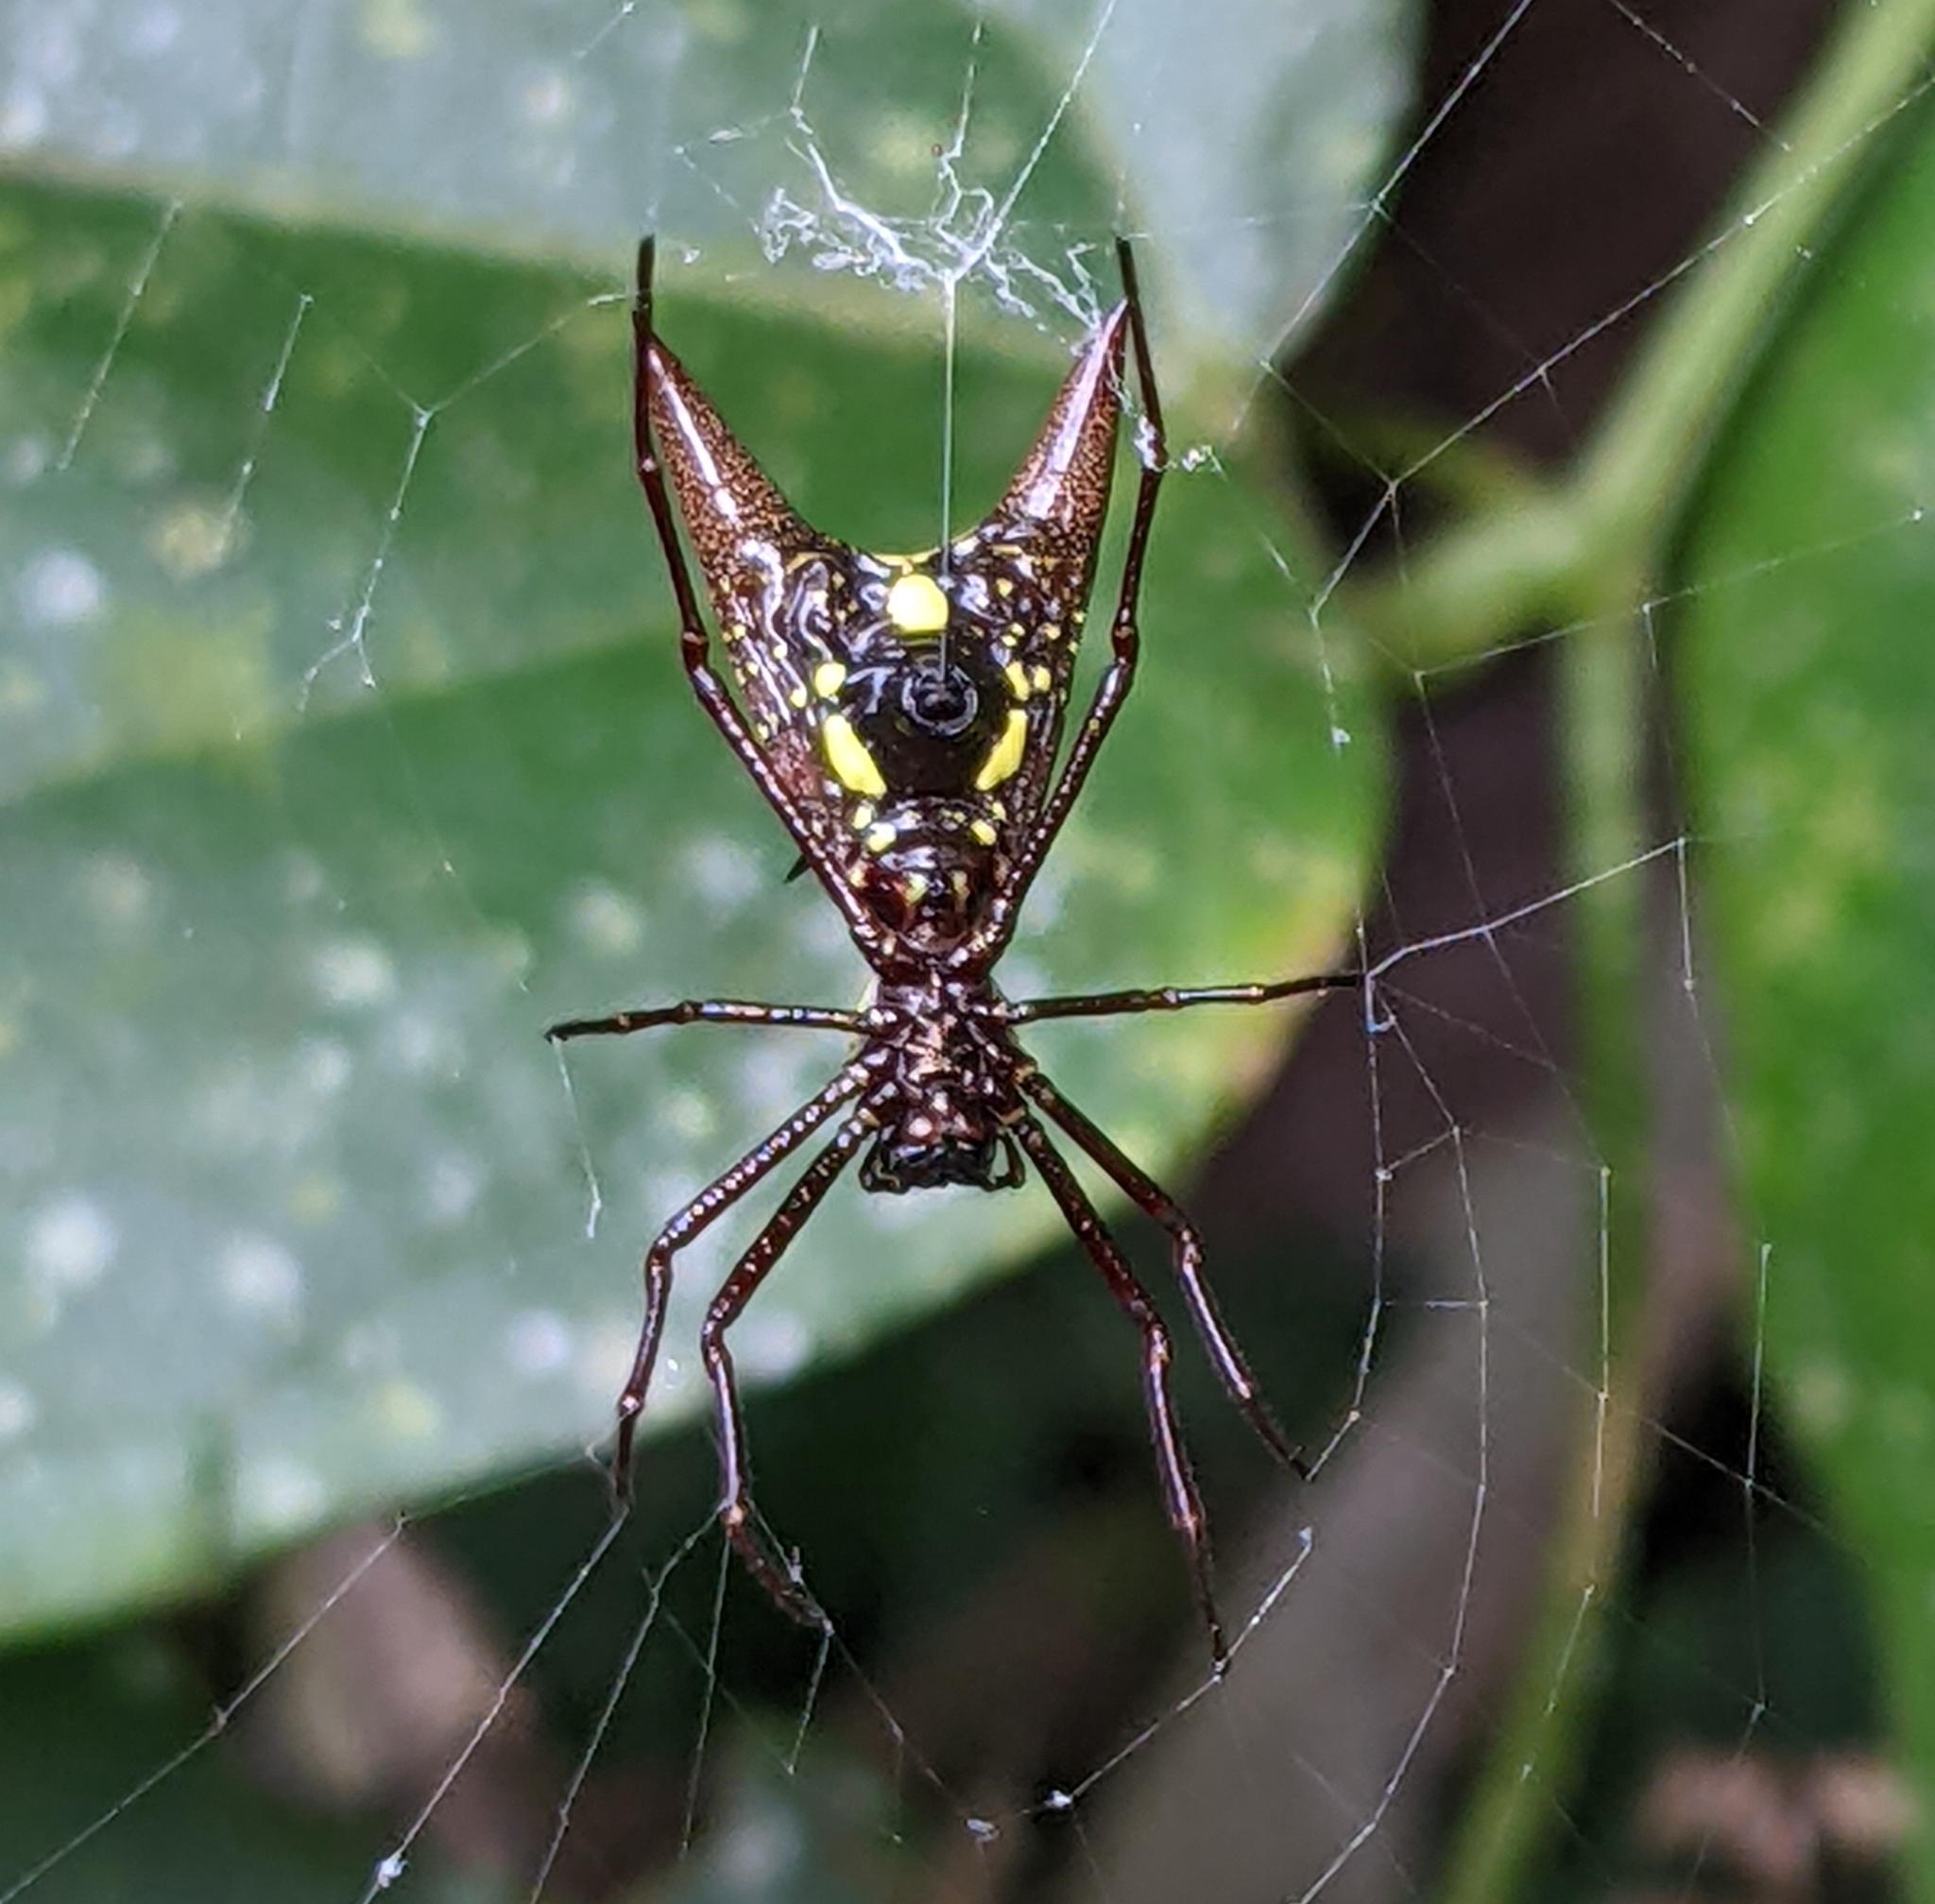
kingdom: Animalia
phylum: Arthropoda
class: Arachnida
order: Araneae
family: Araneidae
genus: Micrathena
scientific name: Micrathena coca
